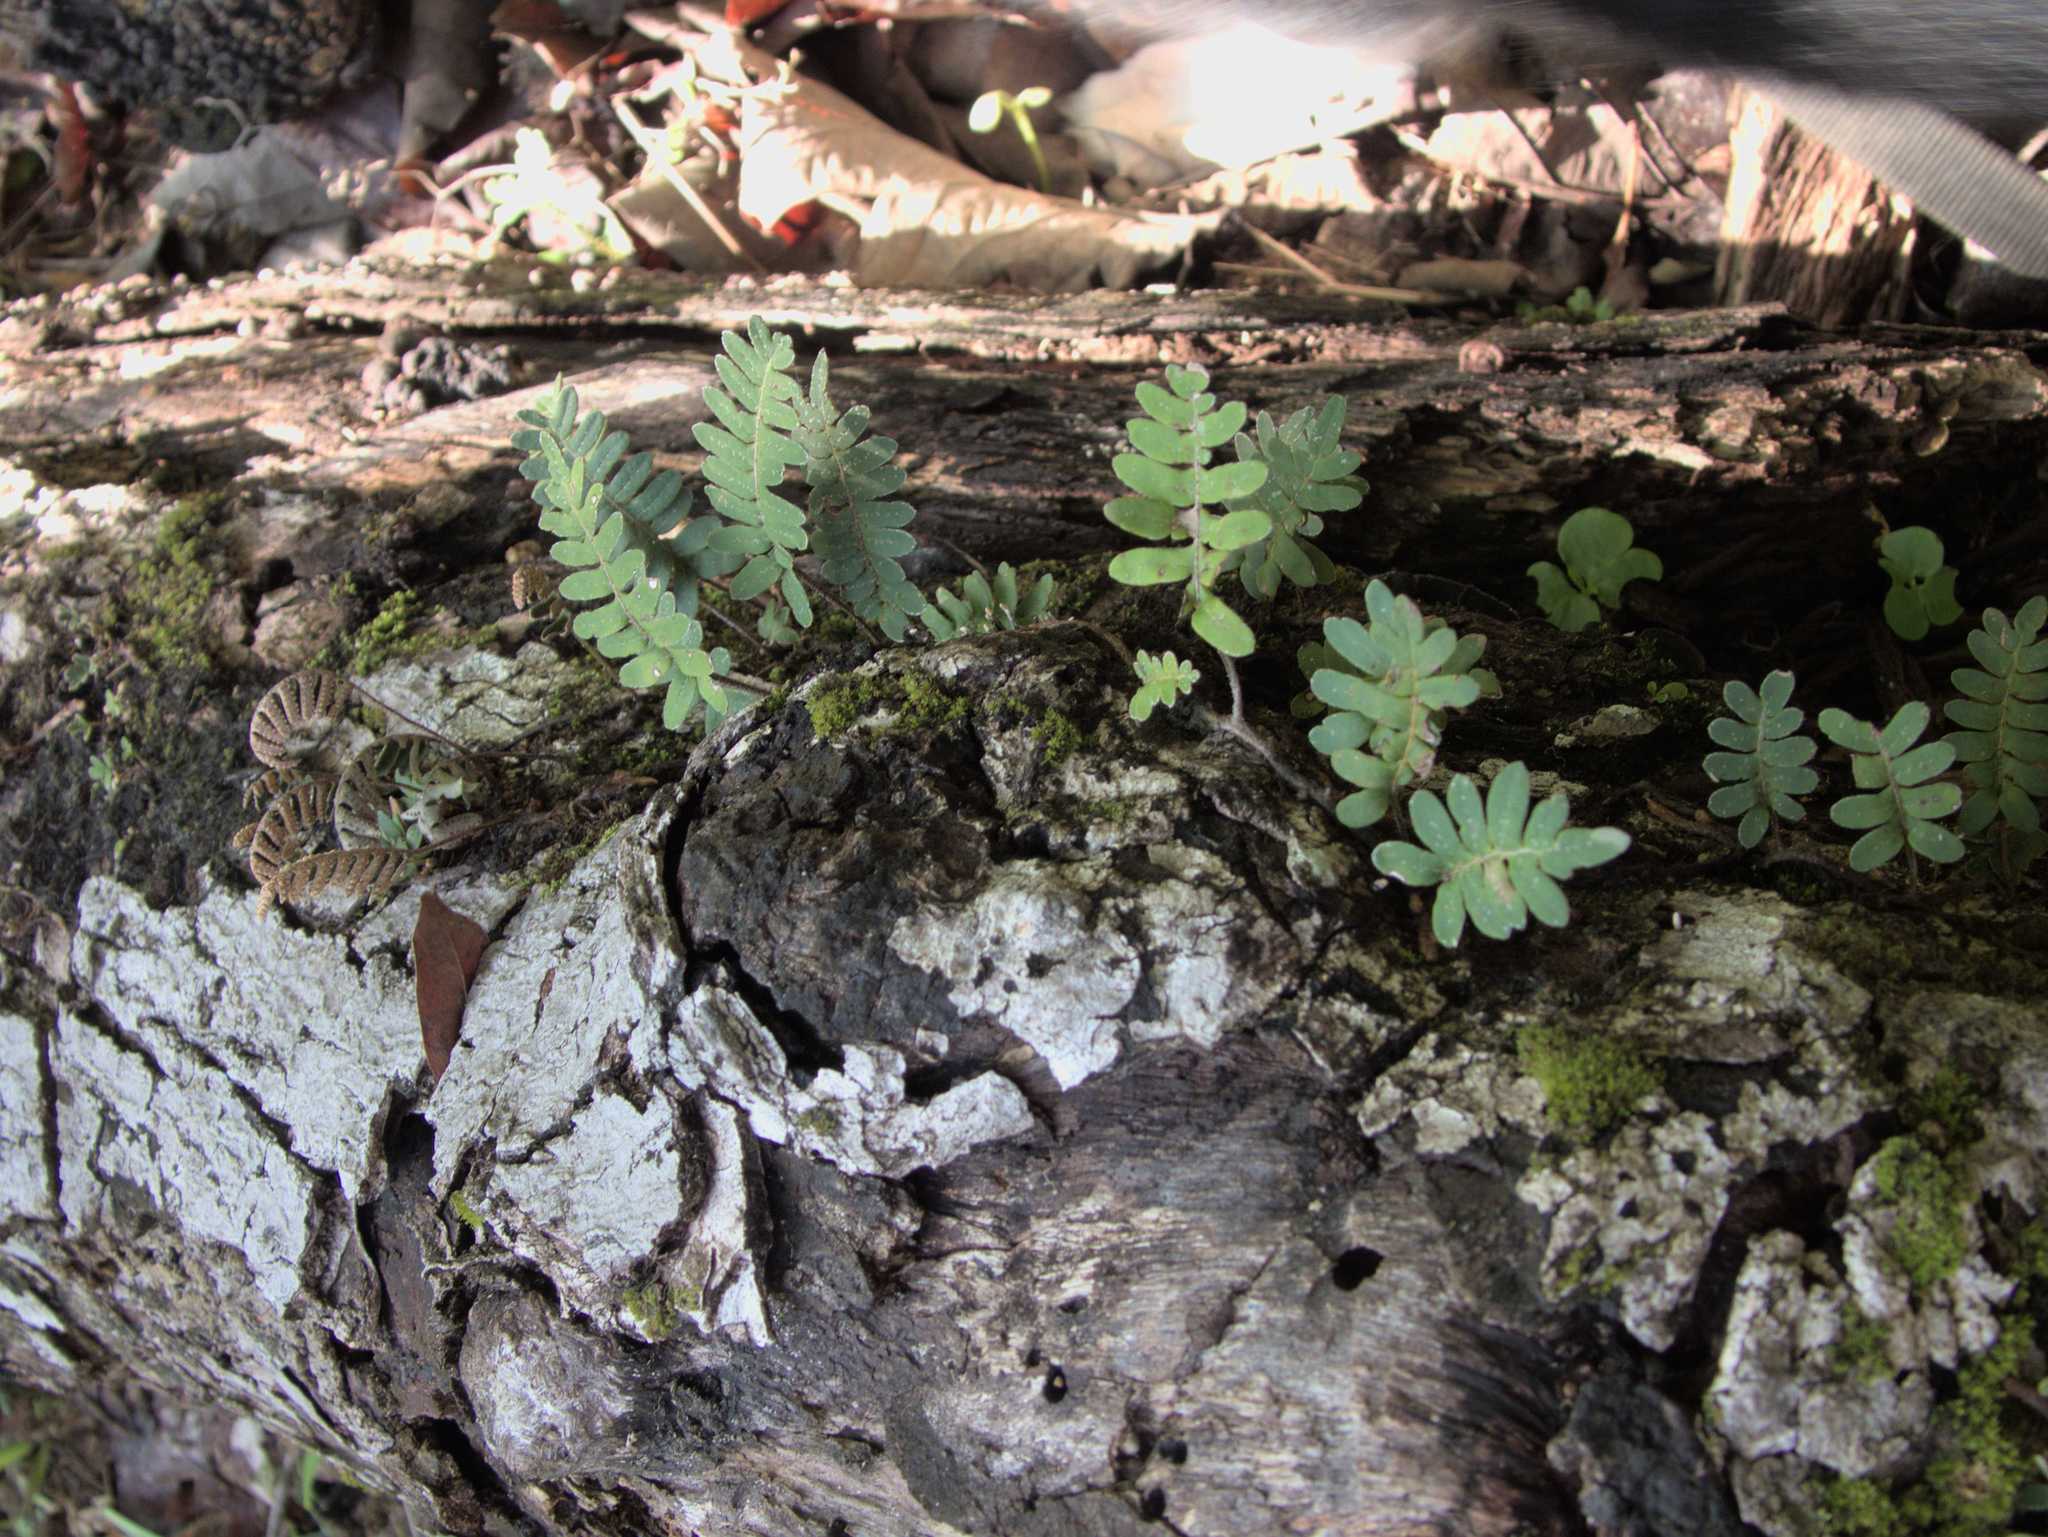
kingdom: Plantae
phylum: Tracheophyta
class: Polypodiopsida
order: Polypodiales
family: Polypodiaceae
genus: Pleopeltis
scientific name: Pleopeltis polypodioides
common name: Resurrection fern
